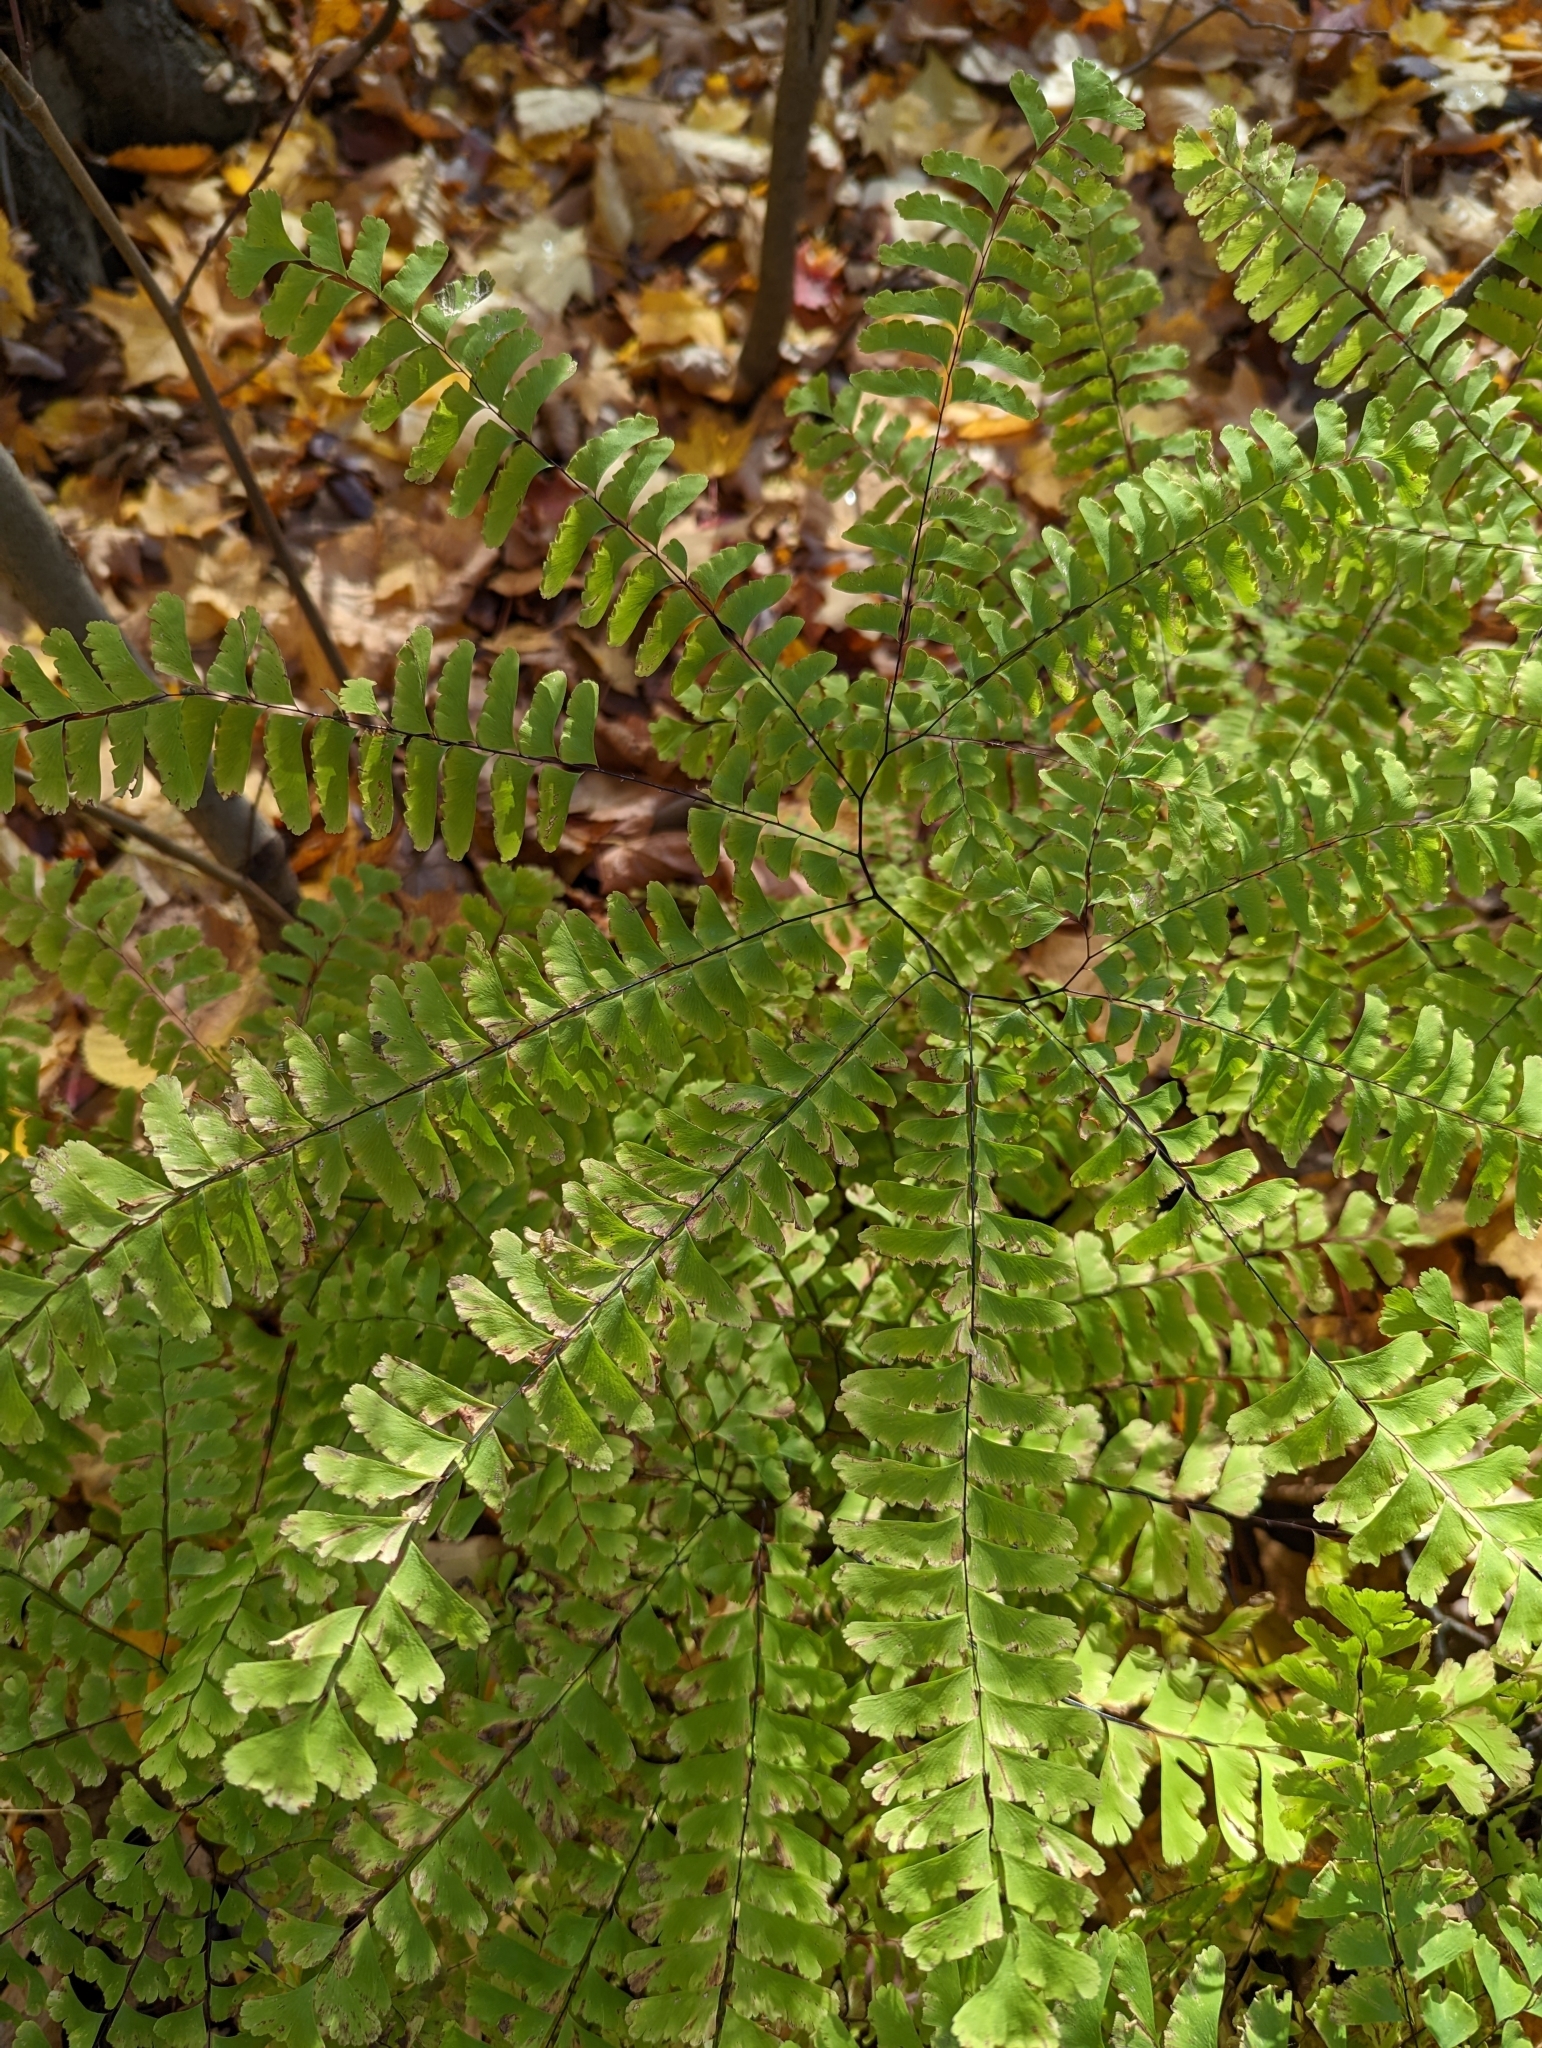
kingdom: Plantae
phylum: Tracheophyta
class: Polypodiopsida
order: Polypodiales
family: Pteridaceae
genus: Adiantum
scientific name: Adiantum pedatum
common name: Five-finger fern
